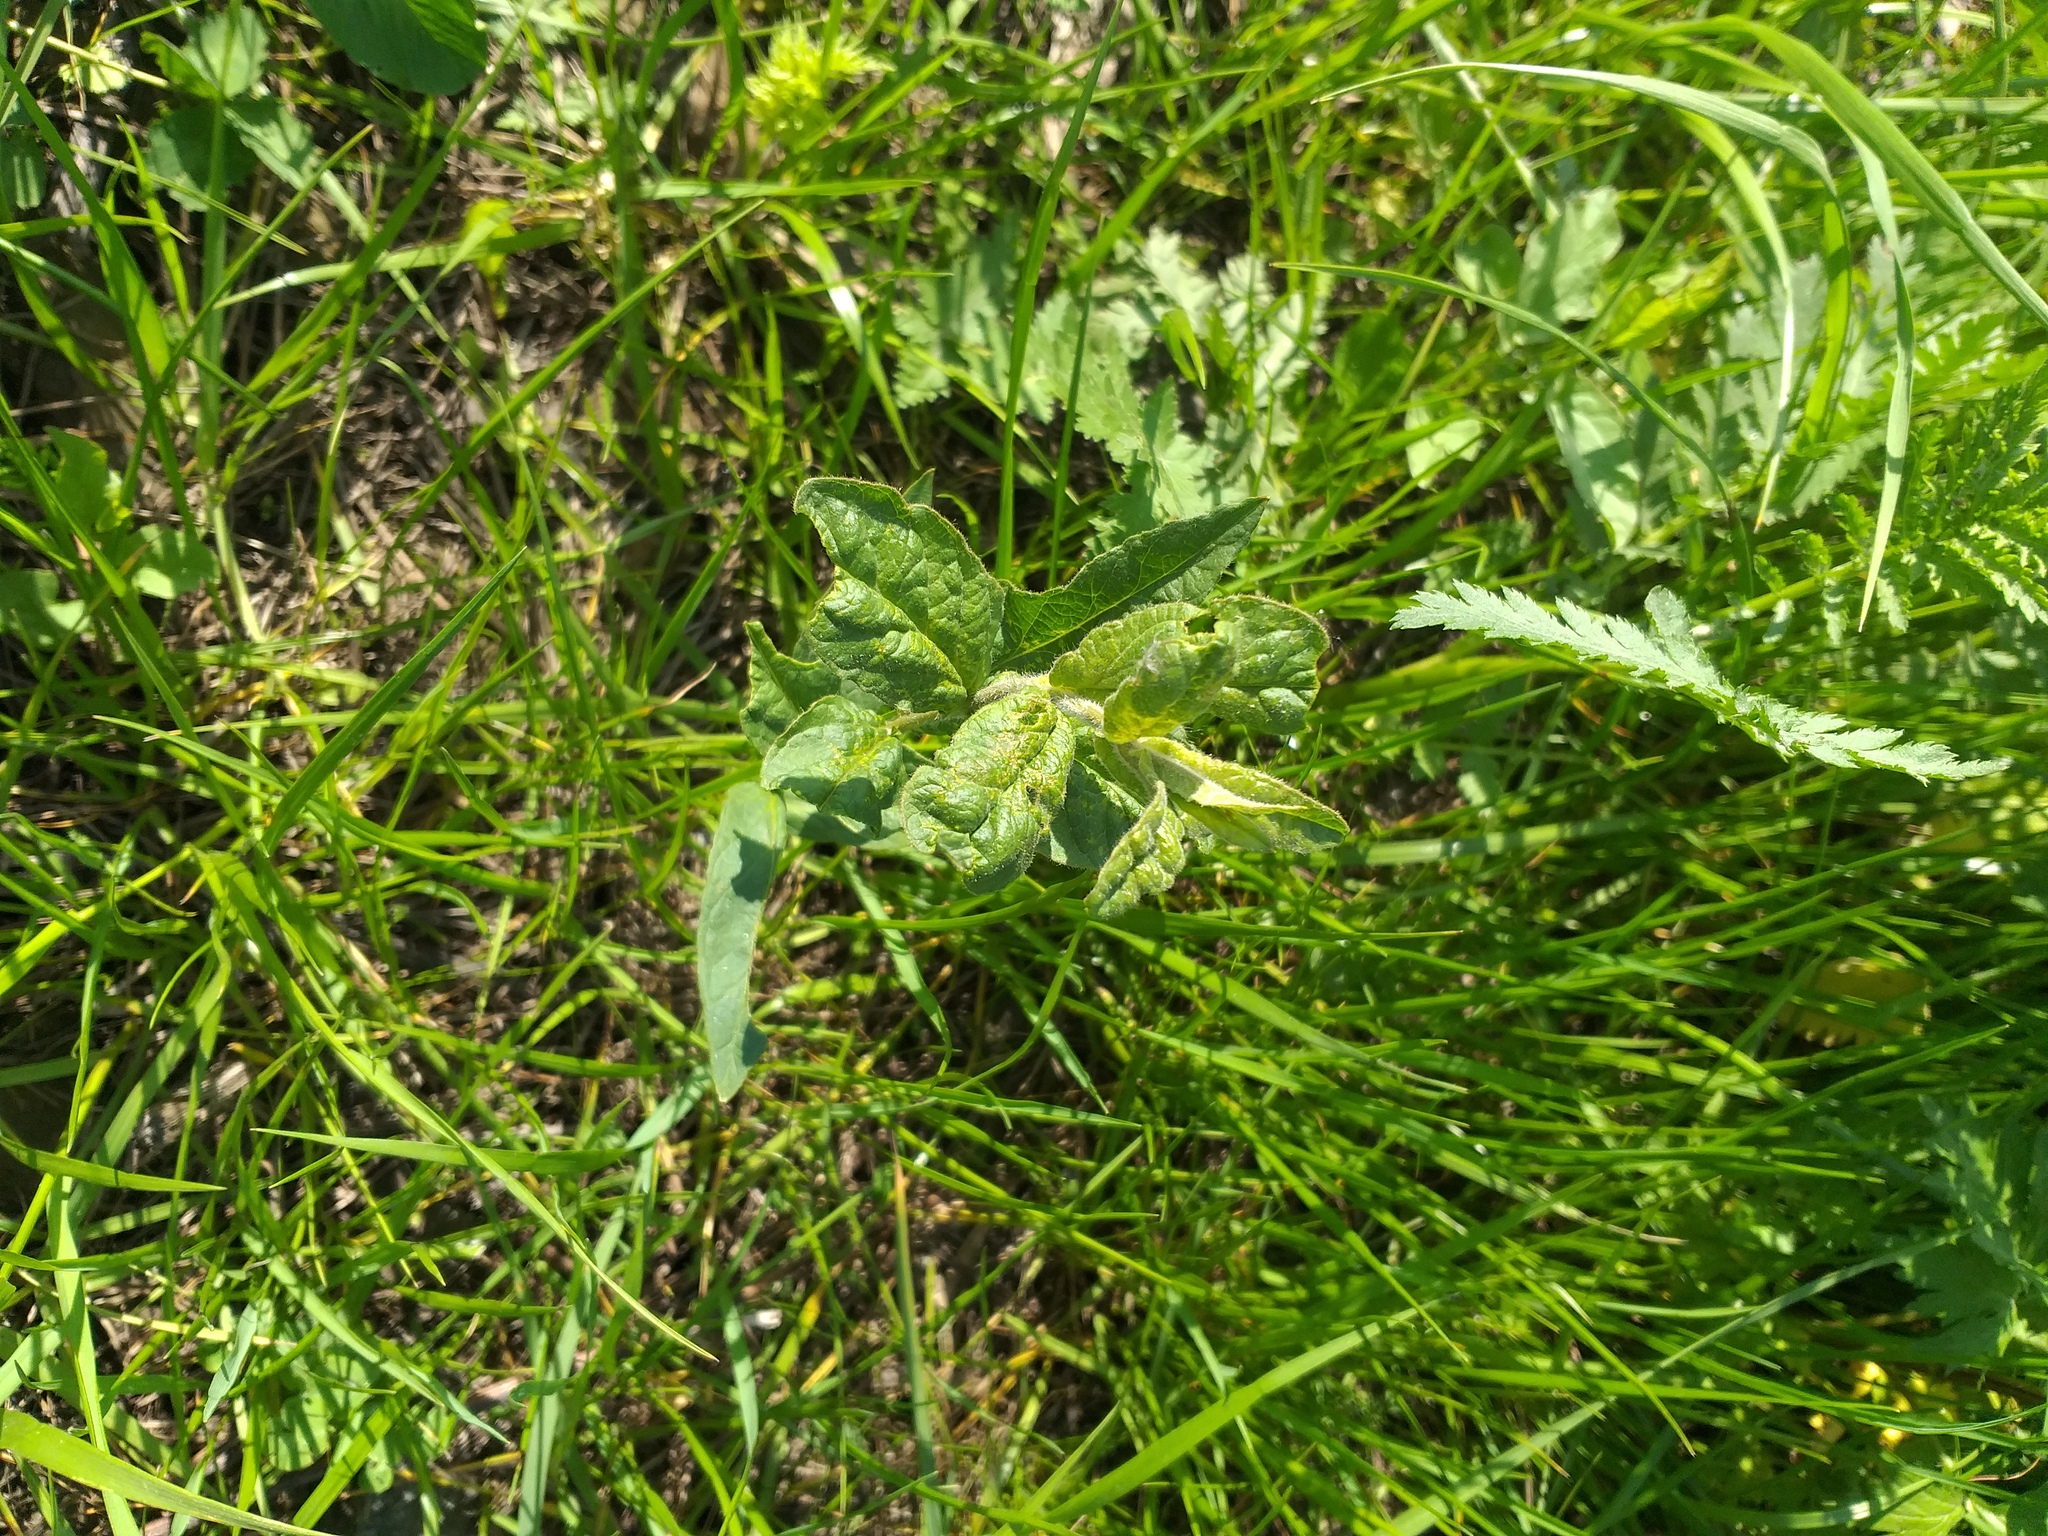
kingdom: Plantae
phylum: Tracheophyta
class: Magnoliopsida
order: Ericales
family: Primulaceae
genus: Lysimachia
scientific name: Lysimachia vulgaris
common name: Yellow loosestrife
